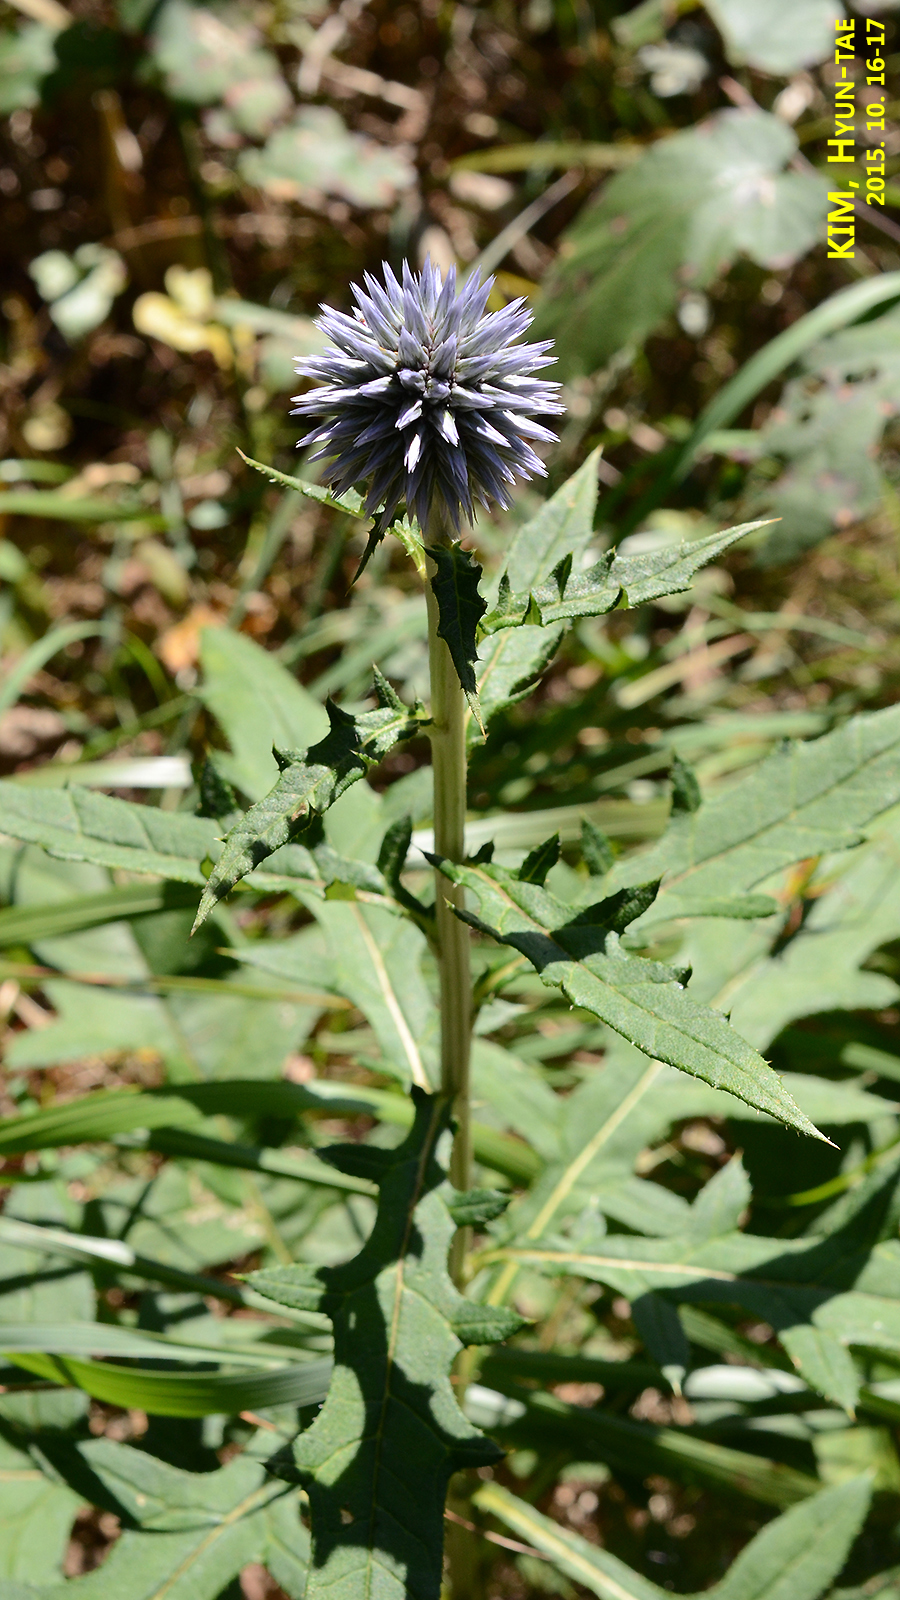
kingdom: Plantae
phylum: Tracheophyta
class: Magnoliopsida
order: Asterales
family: Asteraceae
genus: Echinops
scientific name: Echinops setifer
